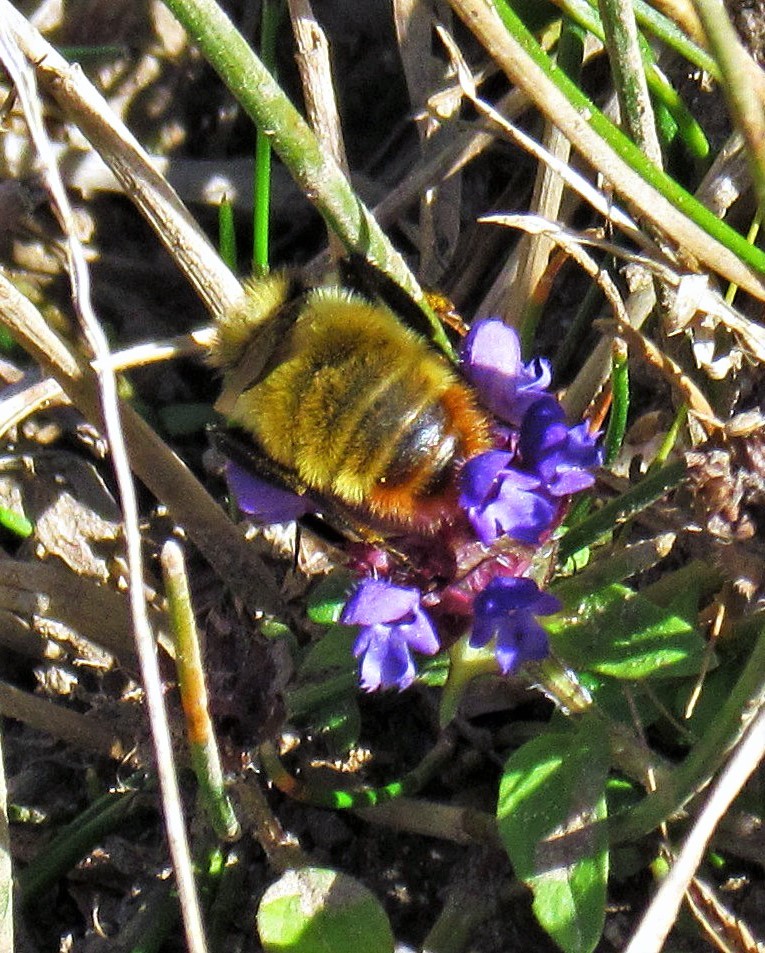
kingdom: Animalia
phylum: Arthropoda
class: Insecta
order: Hymenoptera
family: Apidae
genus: Bombus
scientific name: Bombus opifex
